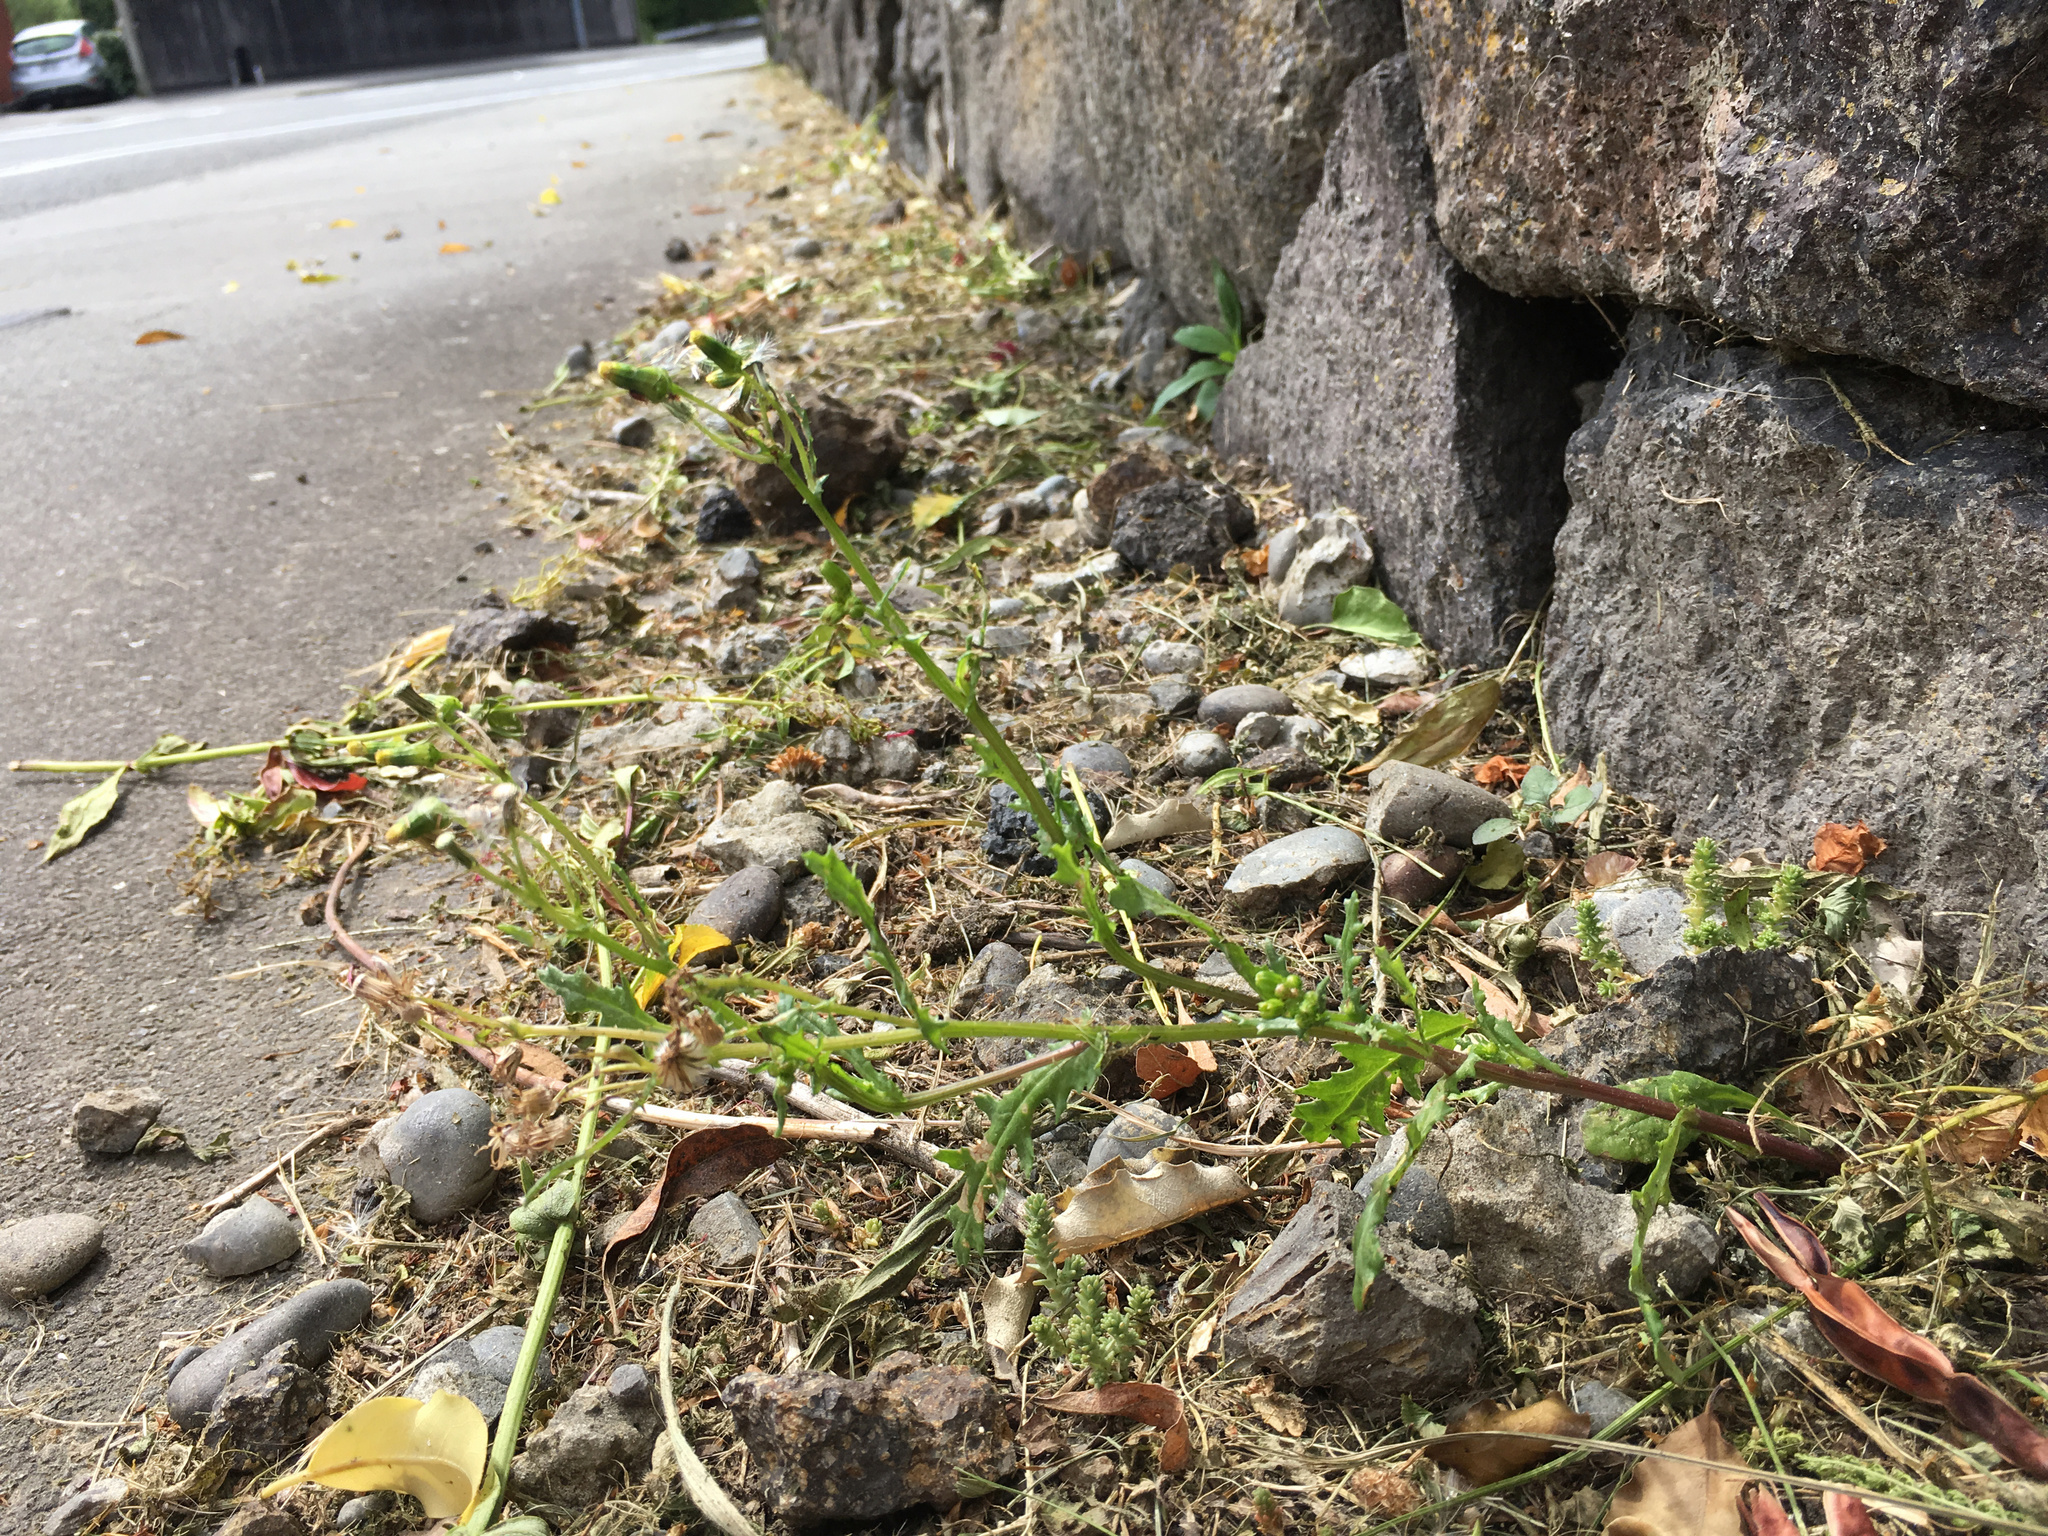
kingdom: Plantae
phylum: Tracheophyta
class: Magnoliopsida
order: Asterales
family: Asteraceae
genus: Senecio
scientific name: Senecio vulgaris
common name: Old-man-in-the-spring
